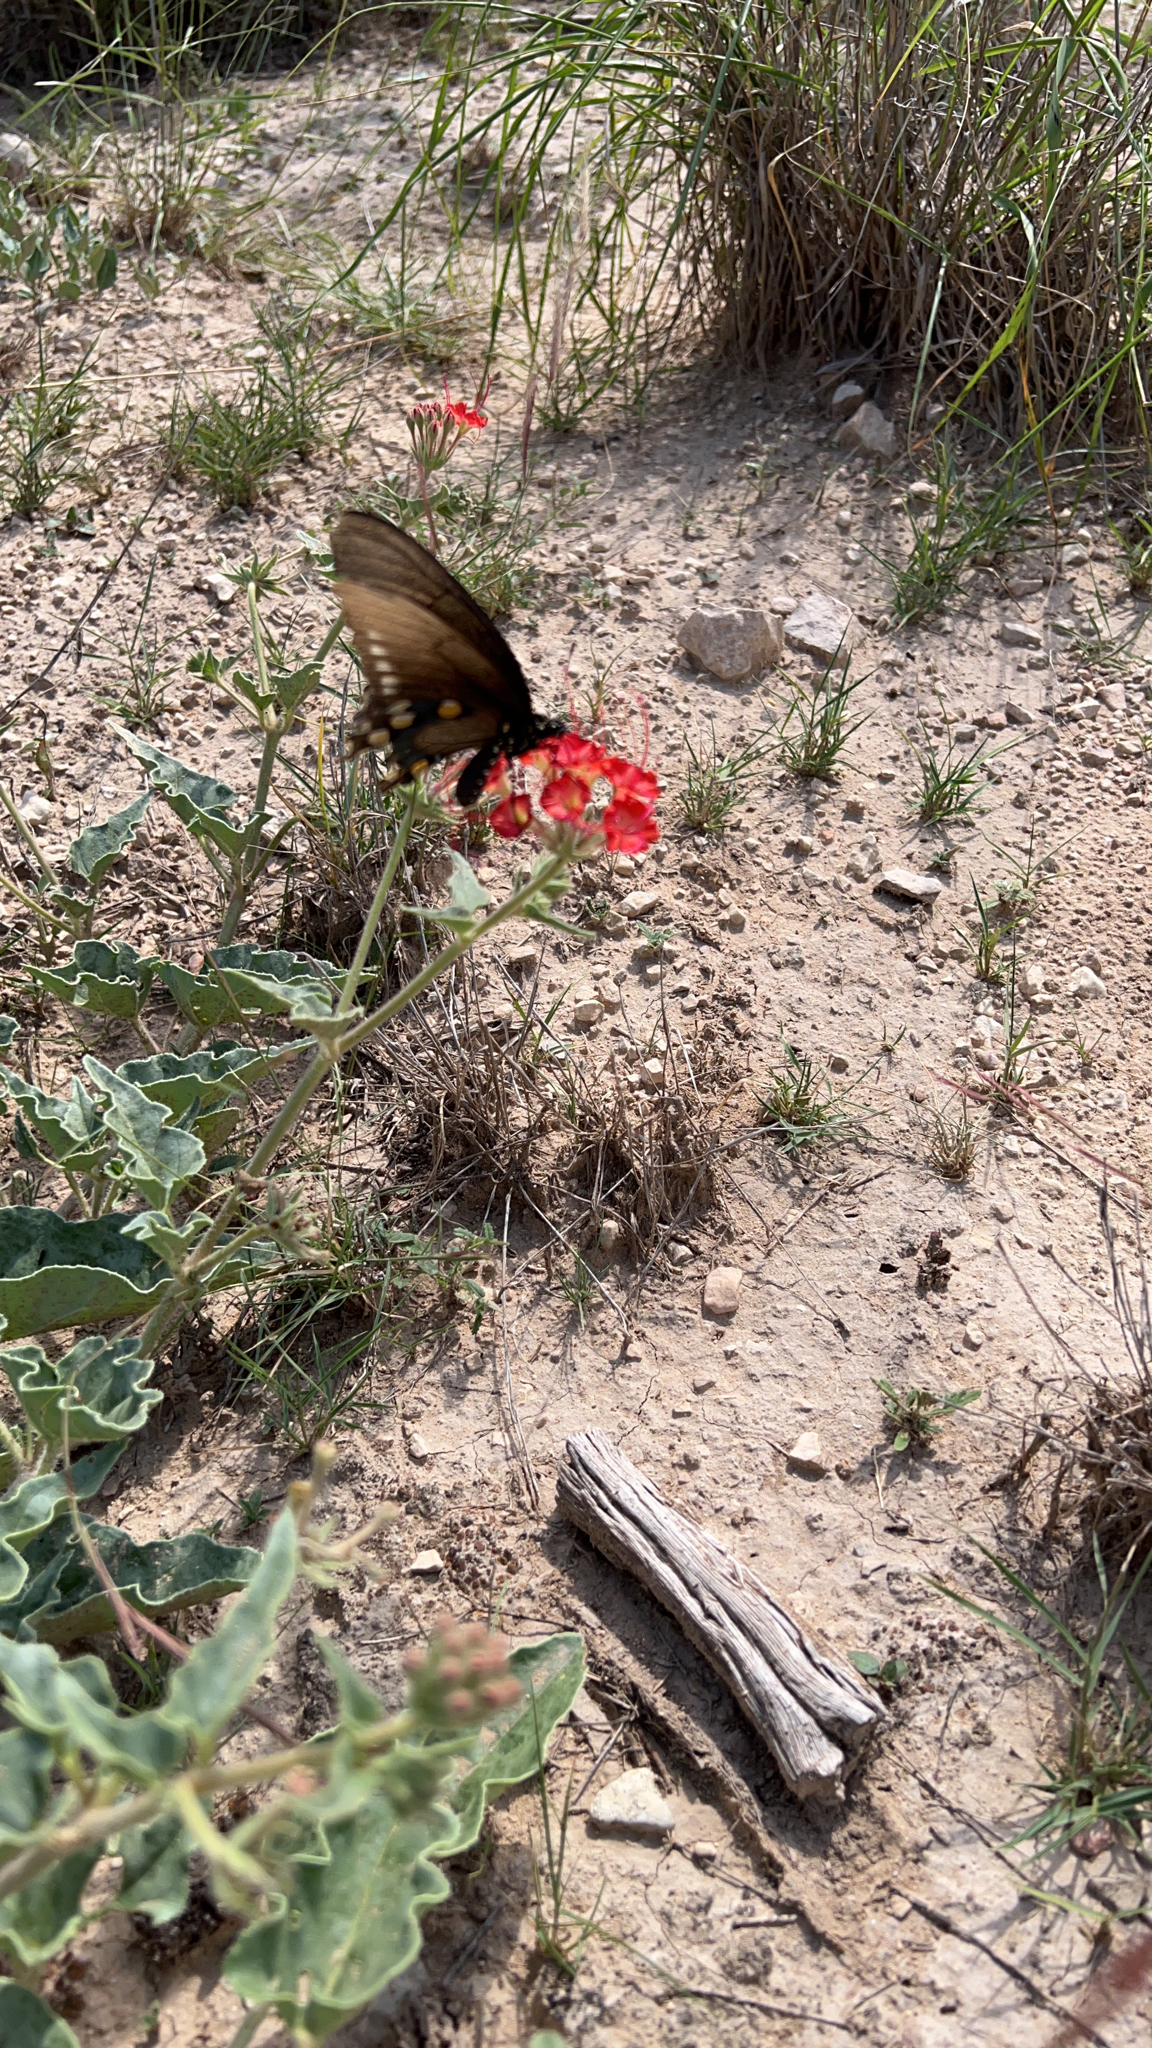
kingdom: Animalia
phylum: Arthropoda
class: Insecta
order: Lepidoptera
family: Papilionidae
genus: Battus
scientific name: Battus philenor
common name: Pipevine swallowtail
